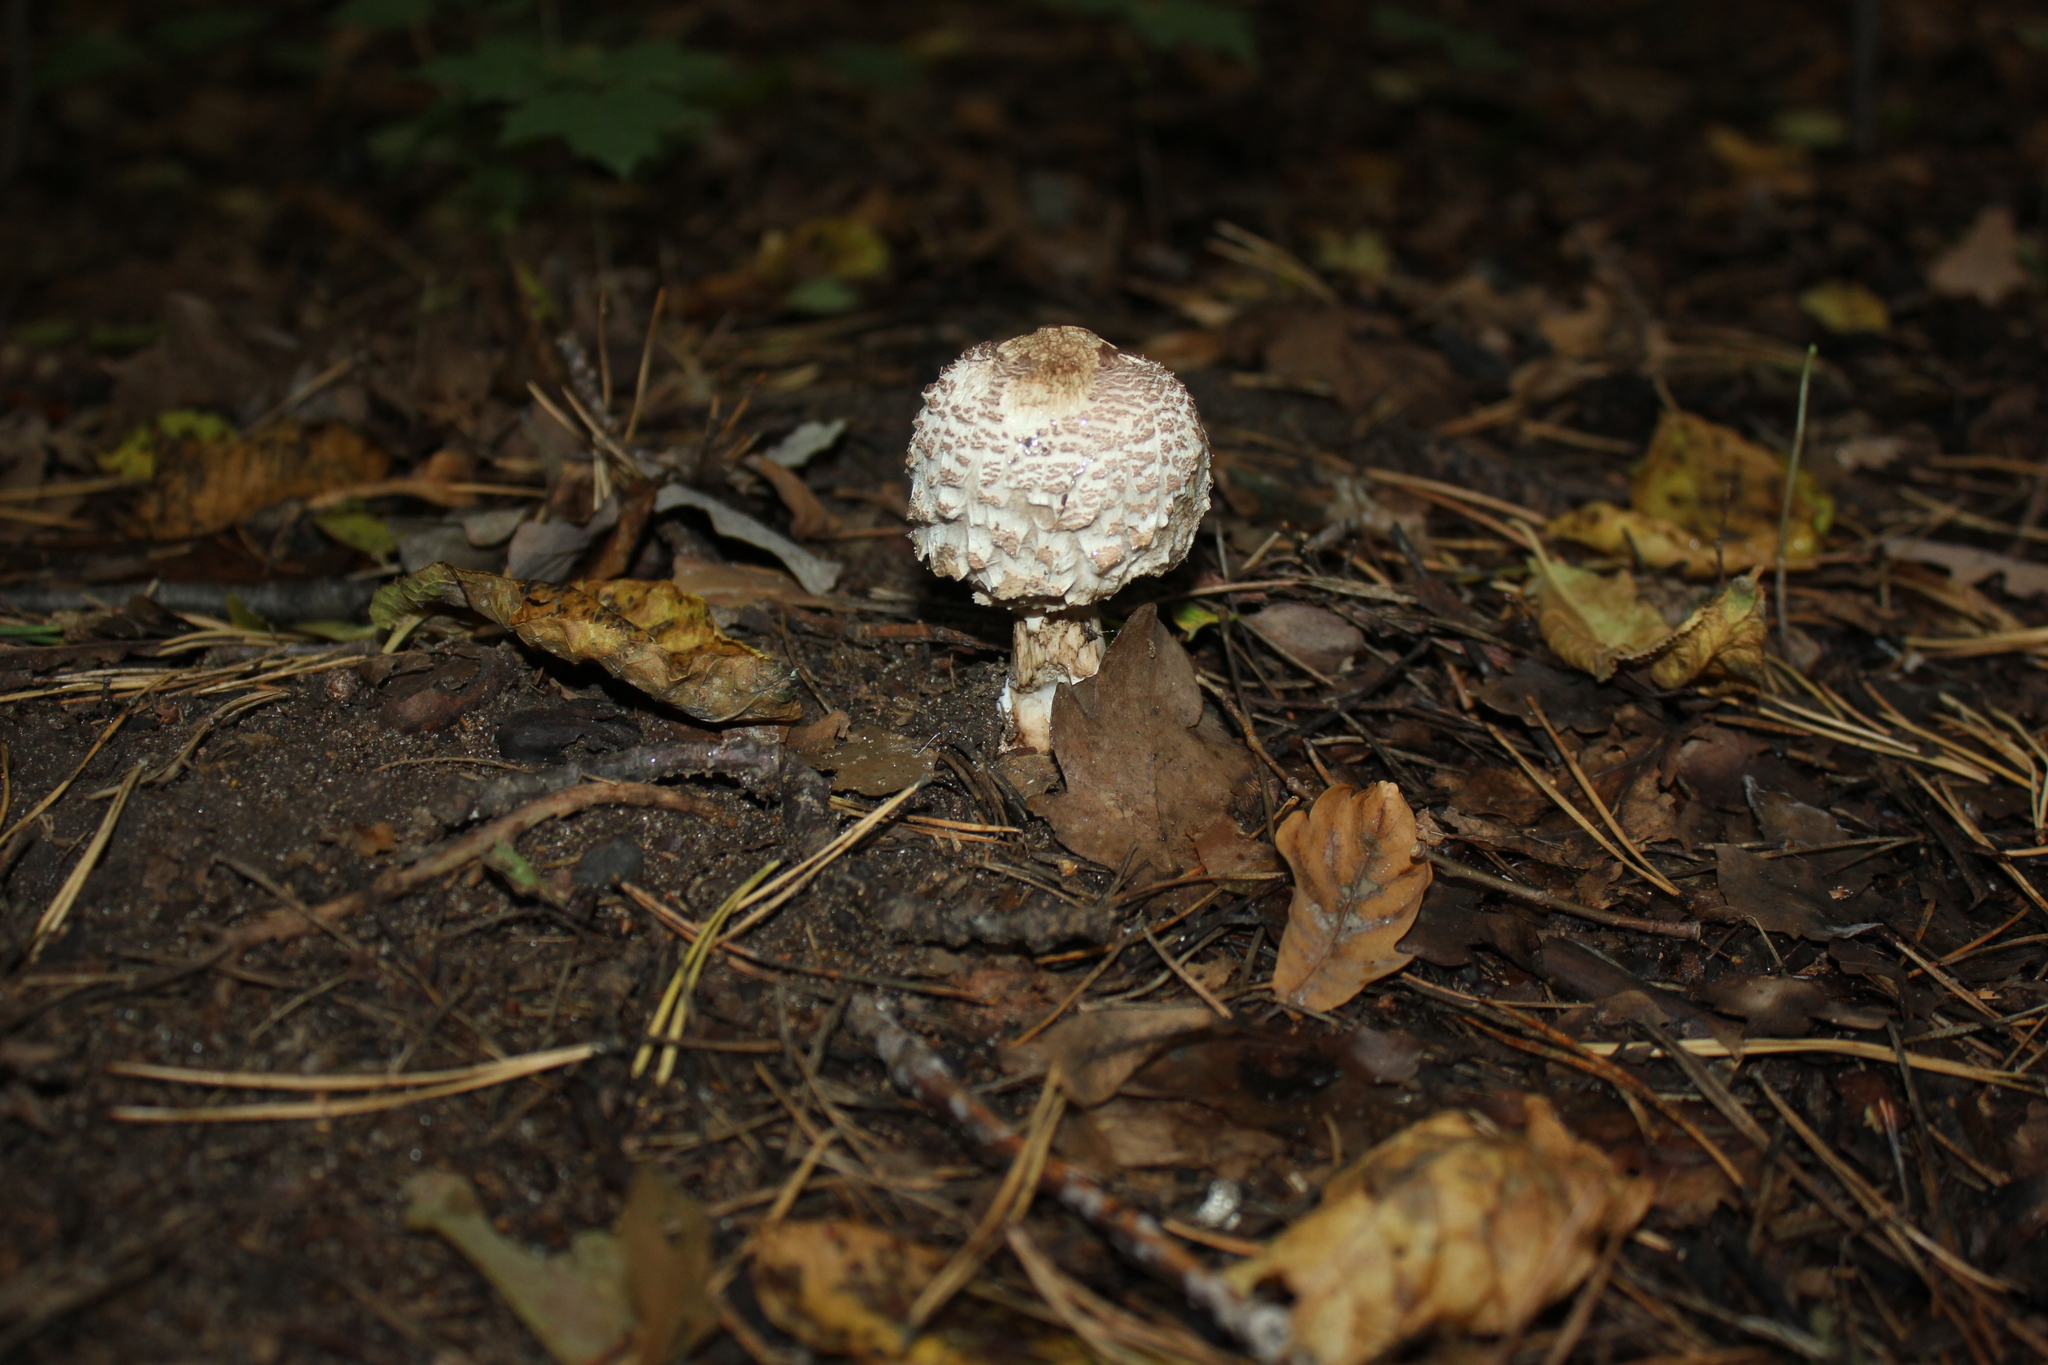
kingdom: Fungi
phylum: Basidiomycota
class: Agaricomycetes
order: Agaricales
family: Agaricaceae
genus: Chlorophyllum
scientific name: Chlorophyllum rhacodes
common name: Shaggy parasol
